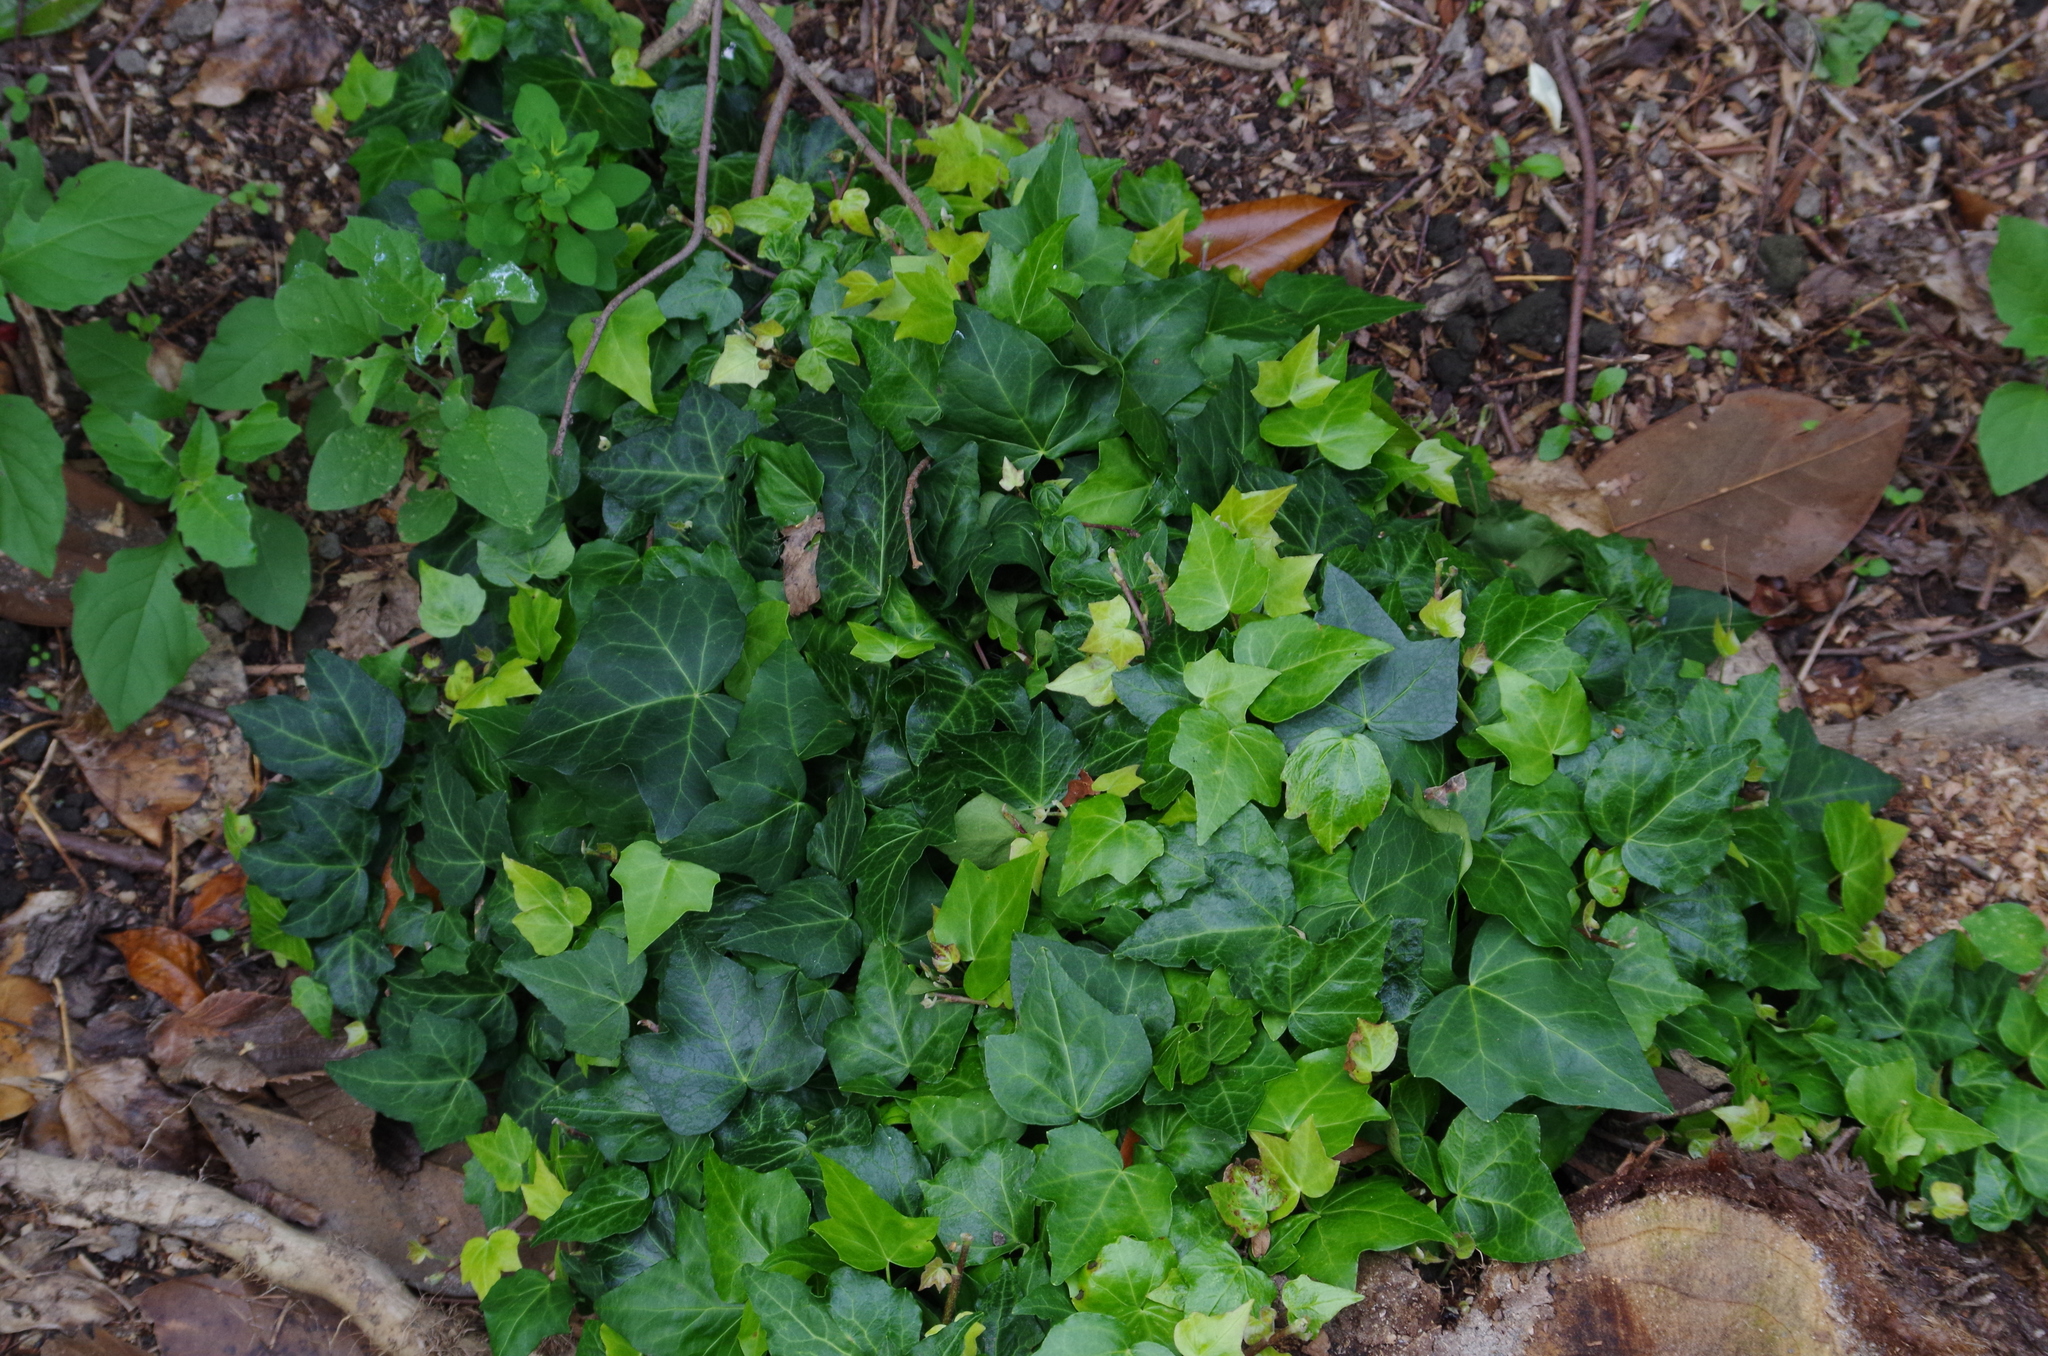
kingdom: Plantae
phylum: Tracheophyta
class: Magnoliopsida
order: Apiales
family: Araliaceae
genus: Hedera
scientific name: Hedera helix
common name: Ivy
